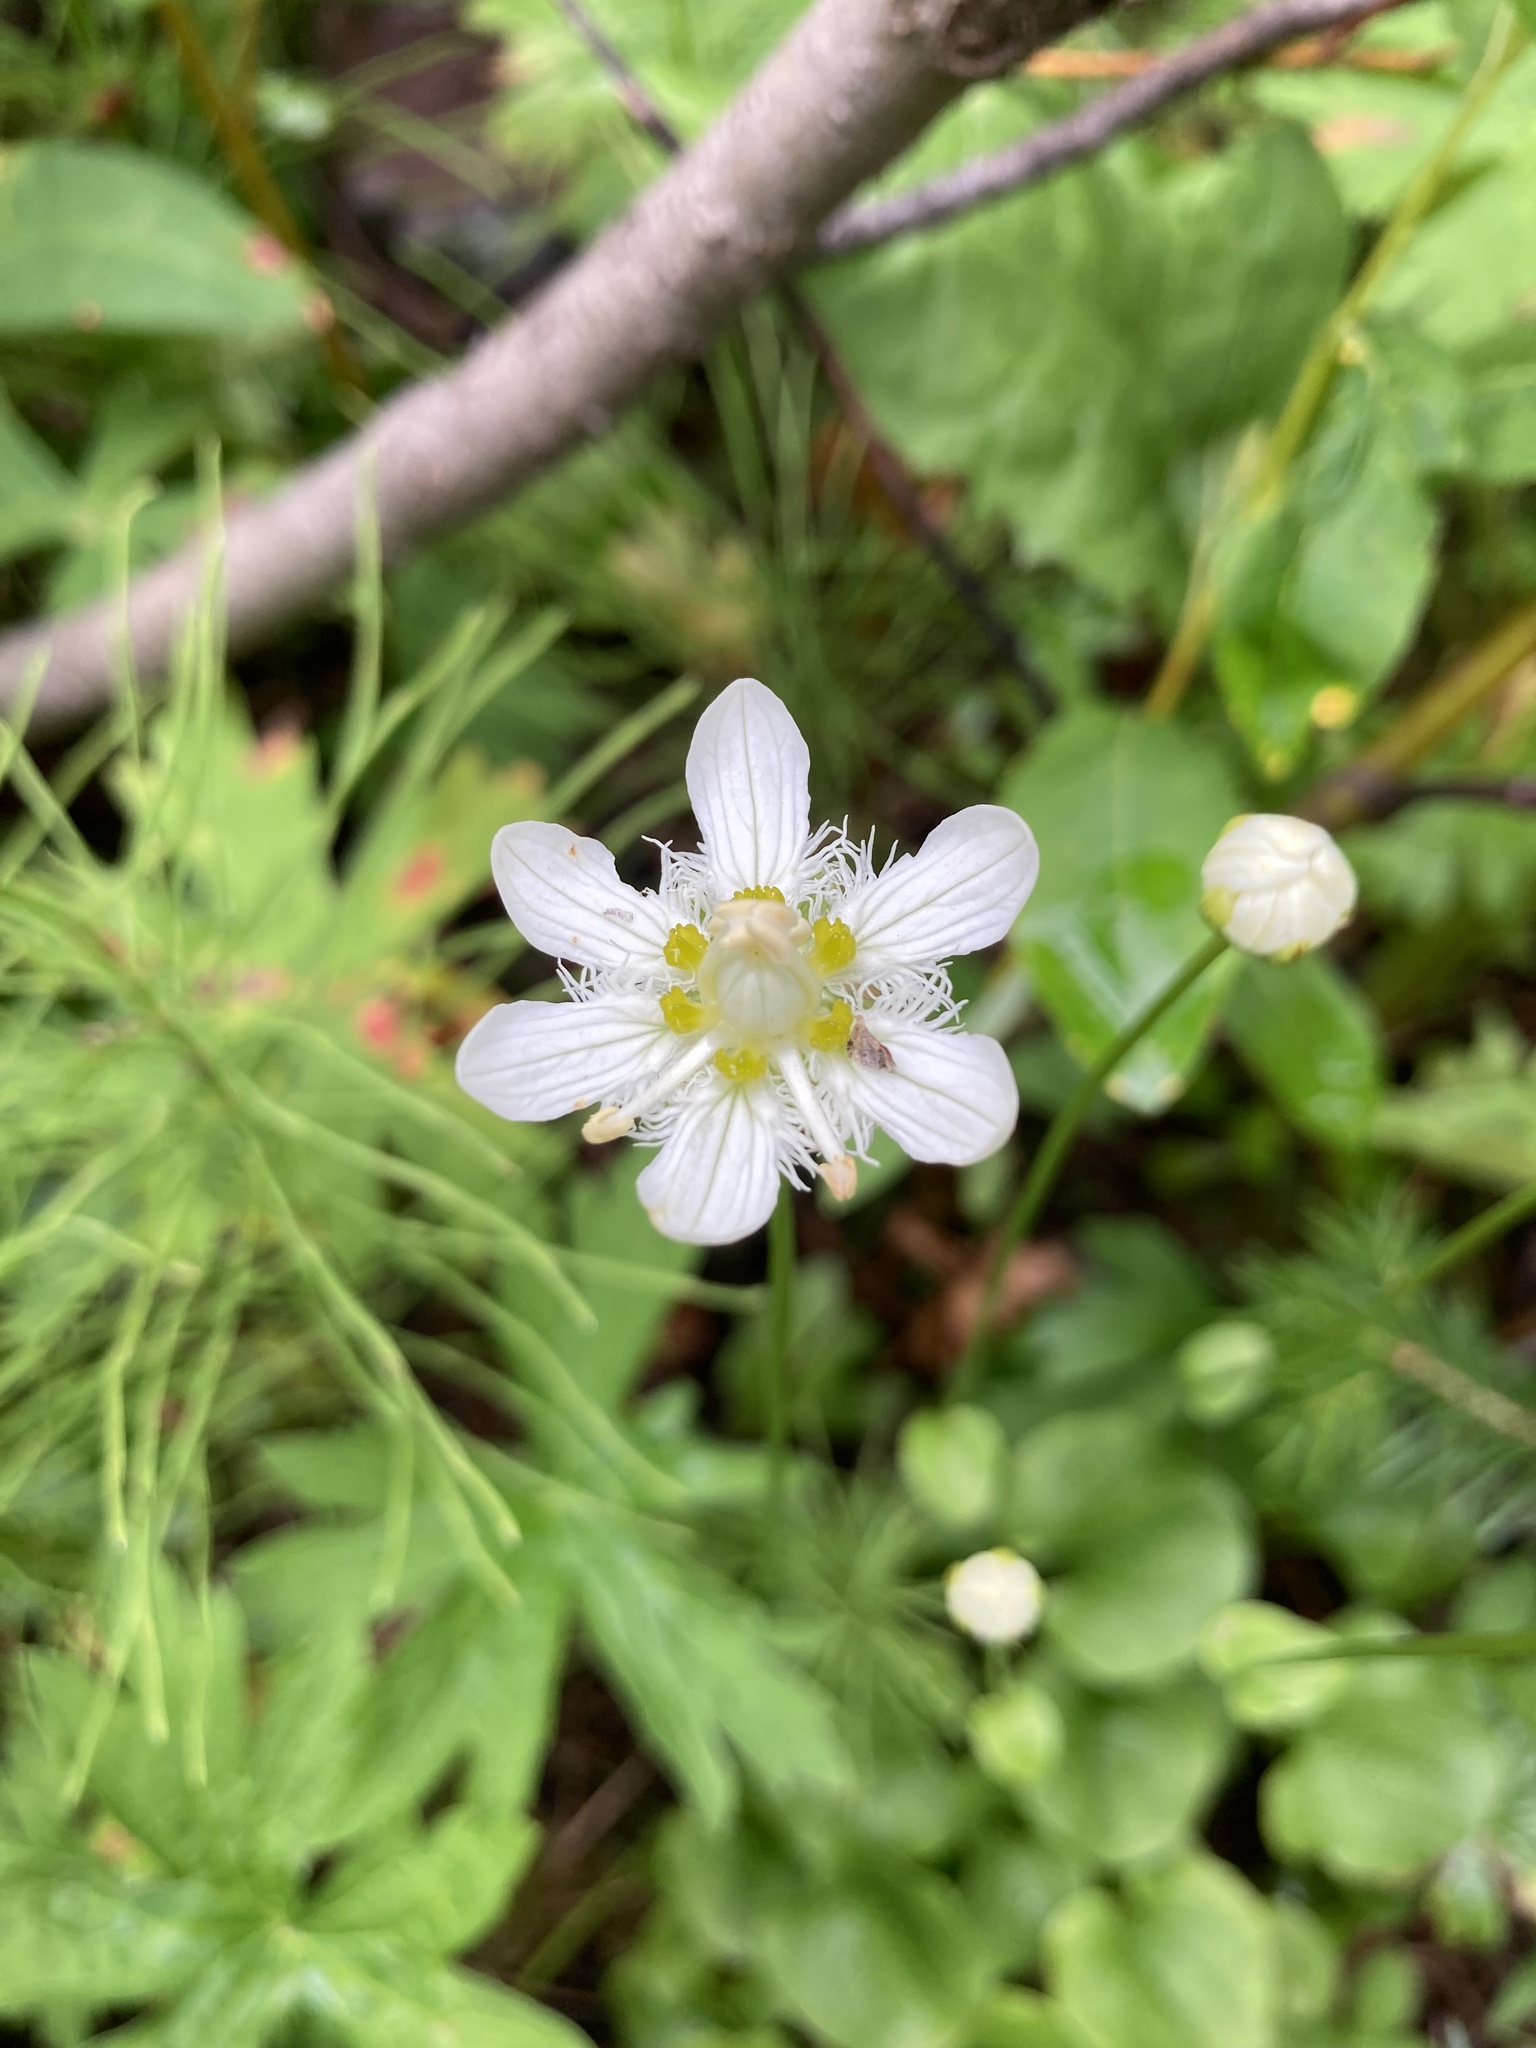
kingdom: Plantae
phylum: Tracheophyta
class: Magnoliopsida
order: Celastrales
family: Parnassiaceae
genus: Parnassia
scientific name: Parnassia fimbriata
